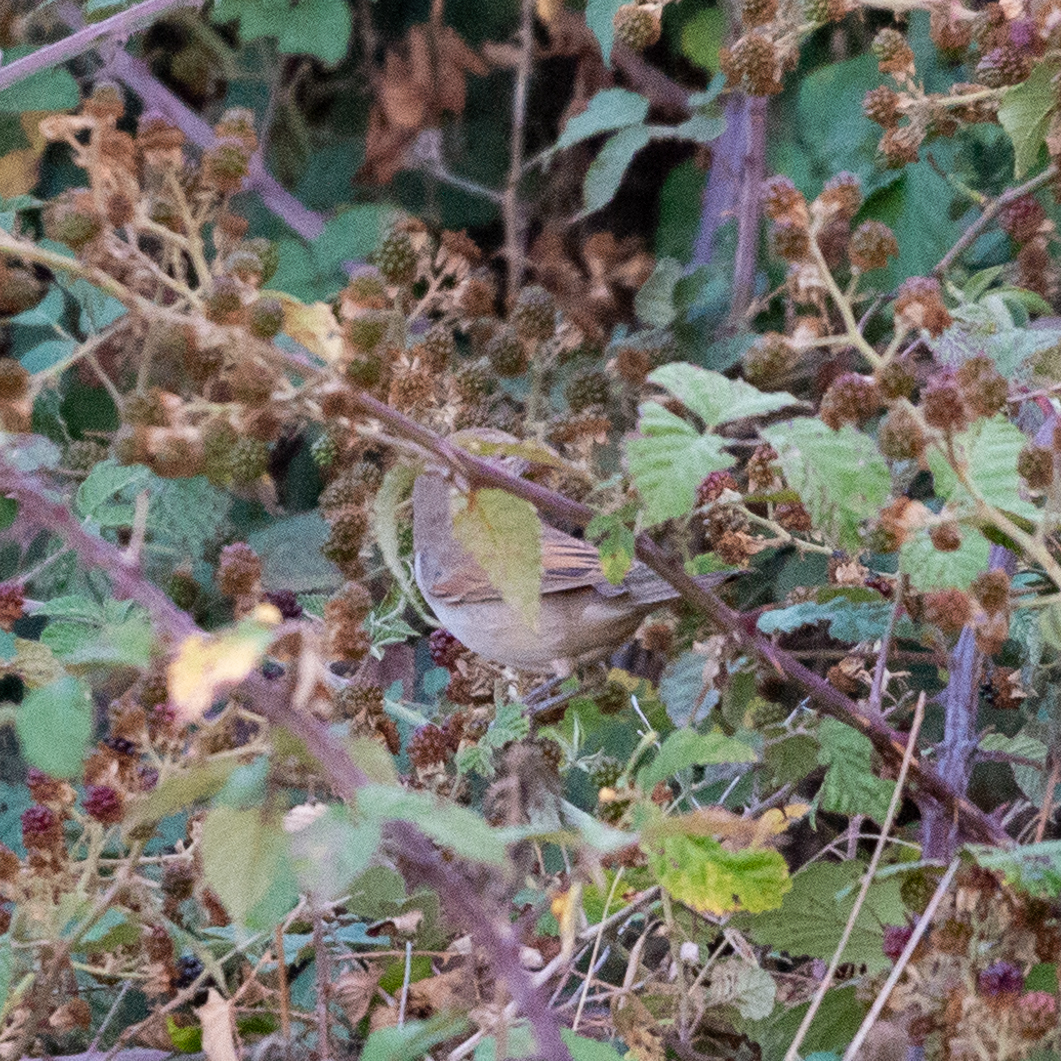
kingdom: Animalia
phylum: Chordata
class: Aves
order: Passeriformes
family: Sylviidae
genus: Sylvia
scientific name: Sylvia communis
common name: Common whitethroat
